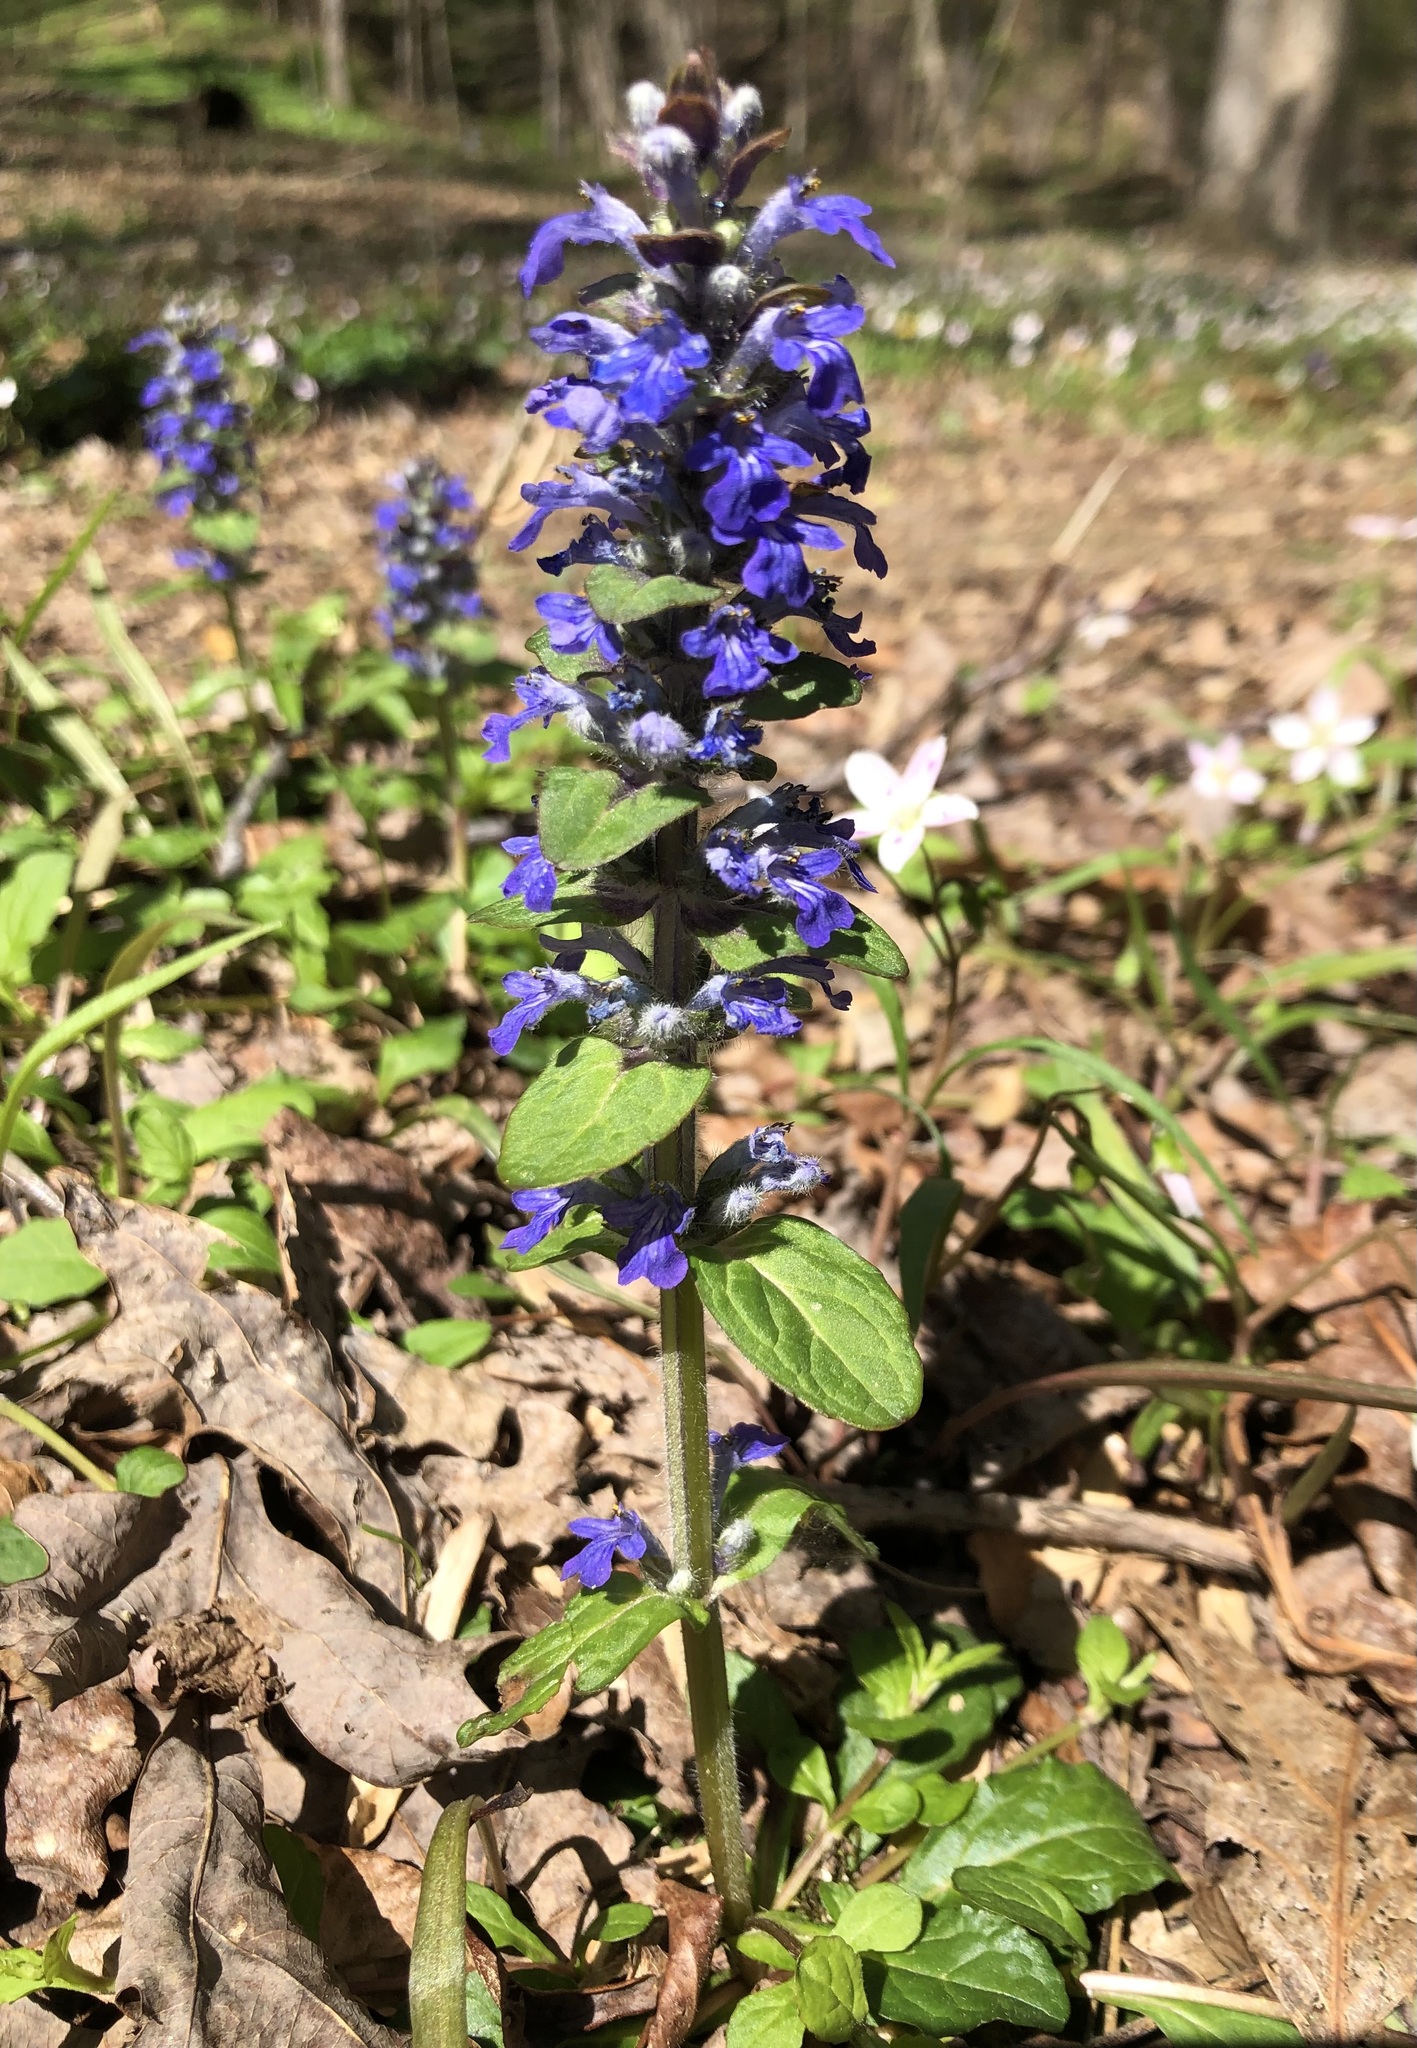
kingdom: Plantae
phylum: Tracheophyta
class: Magnoliopsida
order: Lamiales
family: Lamiaceae
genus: Ajuga
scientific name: Ajuga reptans
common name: Bugle
